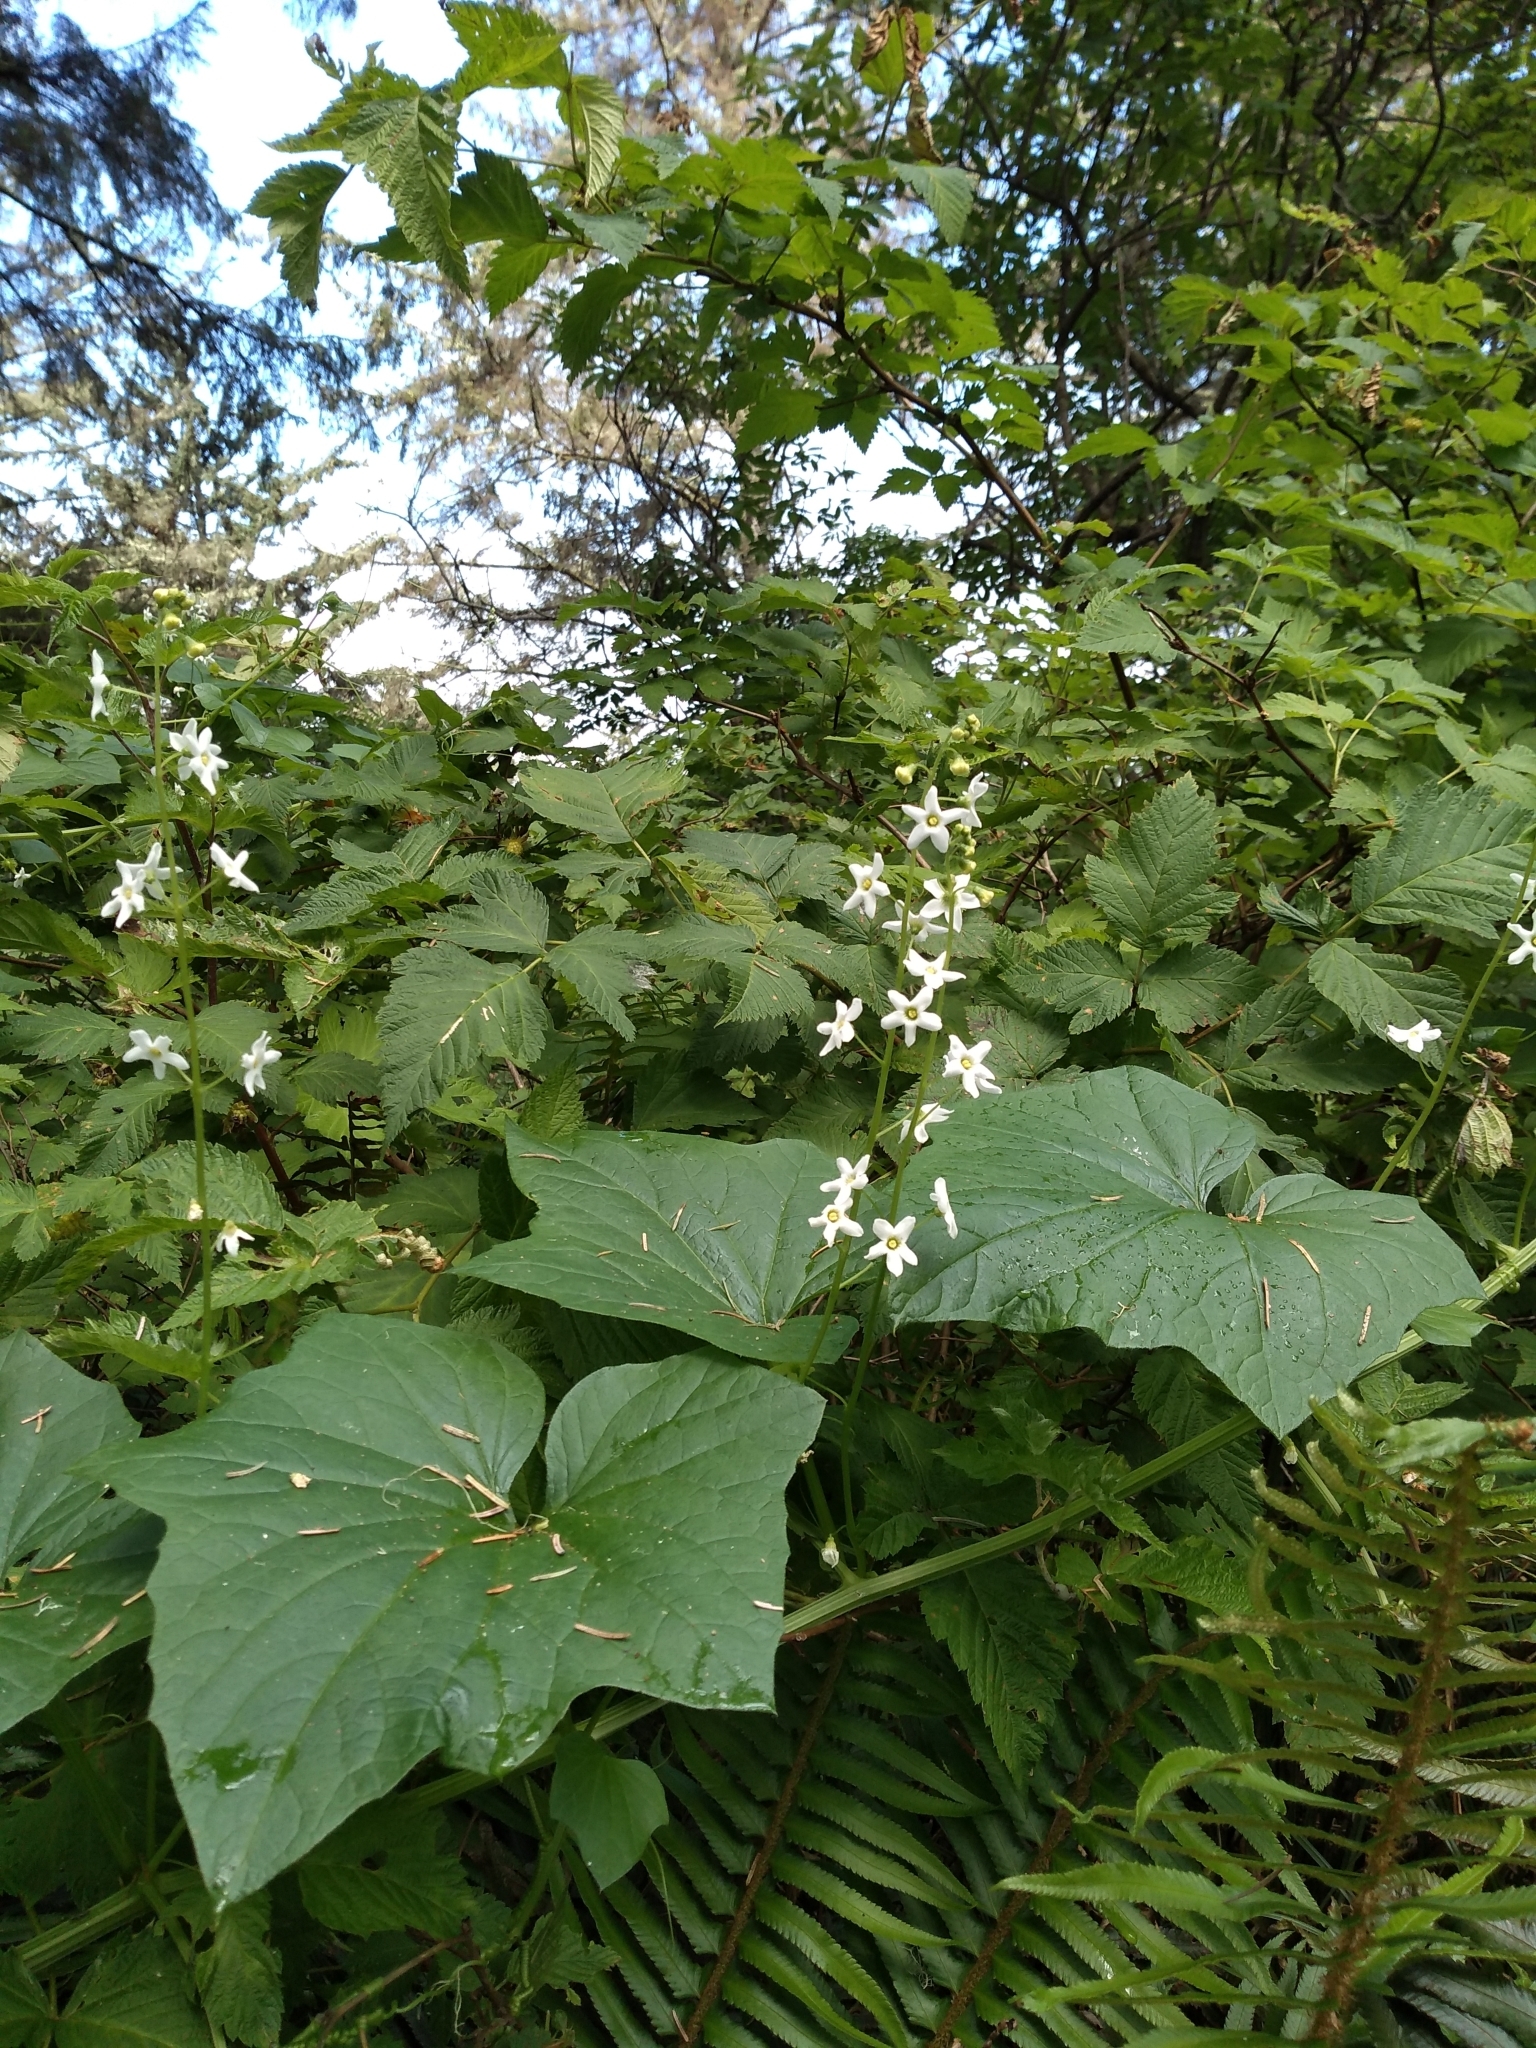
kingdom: Plantae
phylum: Tracheophyta
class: Magnoliopsida
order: Cucurbitales
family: Cucurbitaceae
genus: Marah
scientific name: Marah oregana
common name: Coastal manroot
